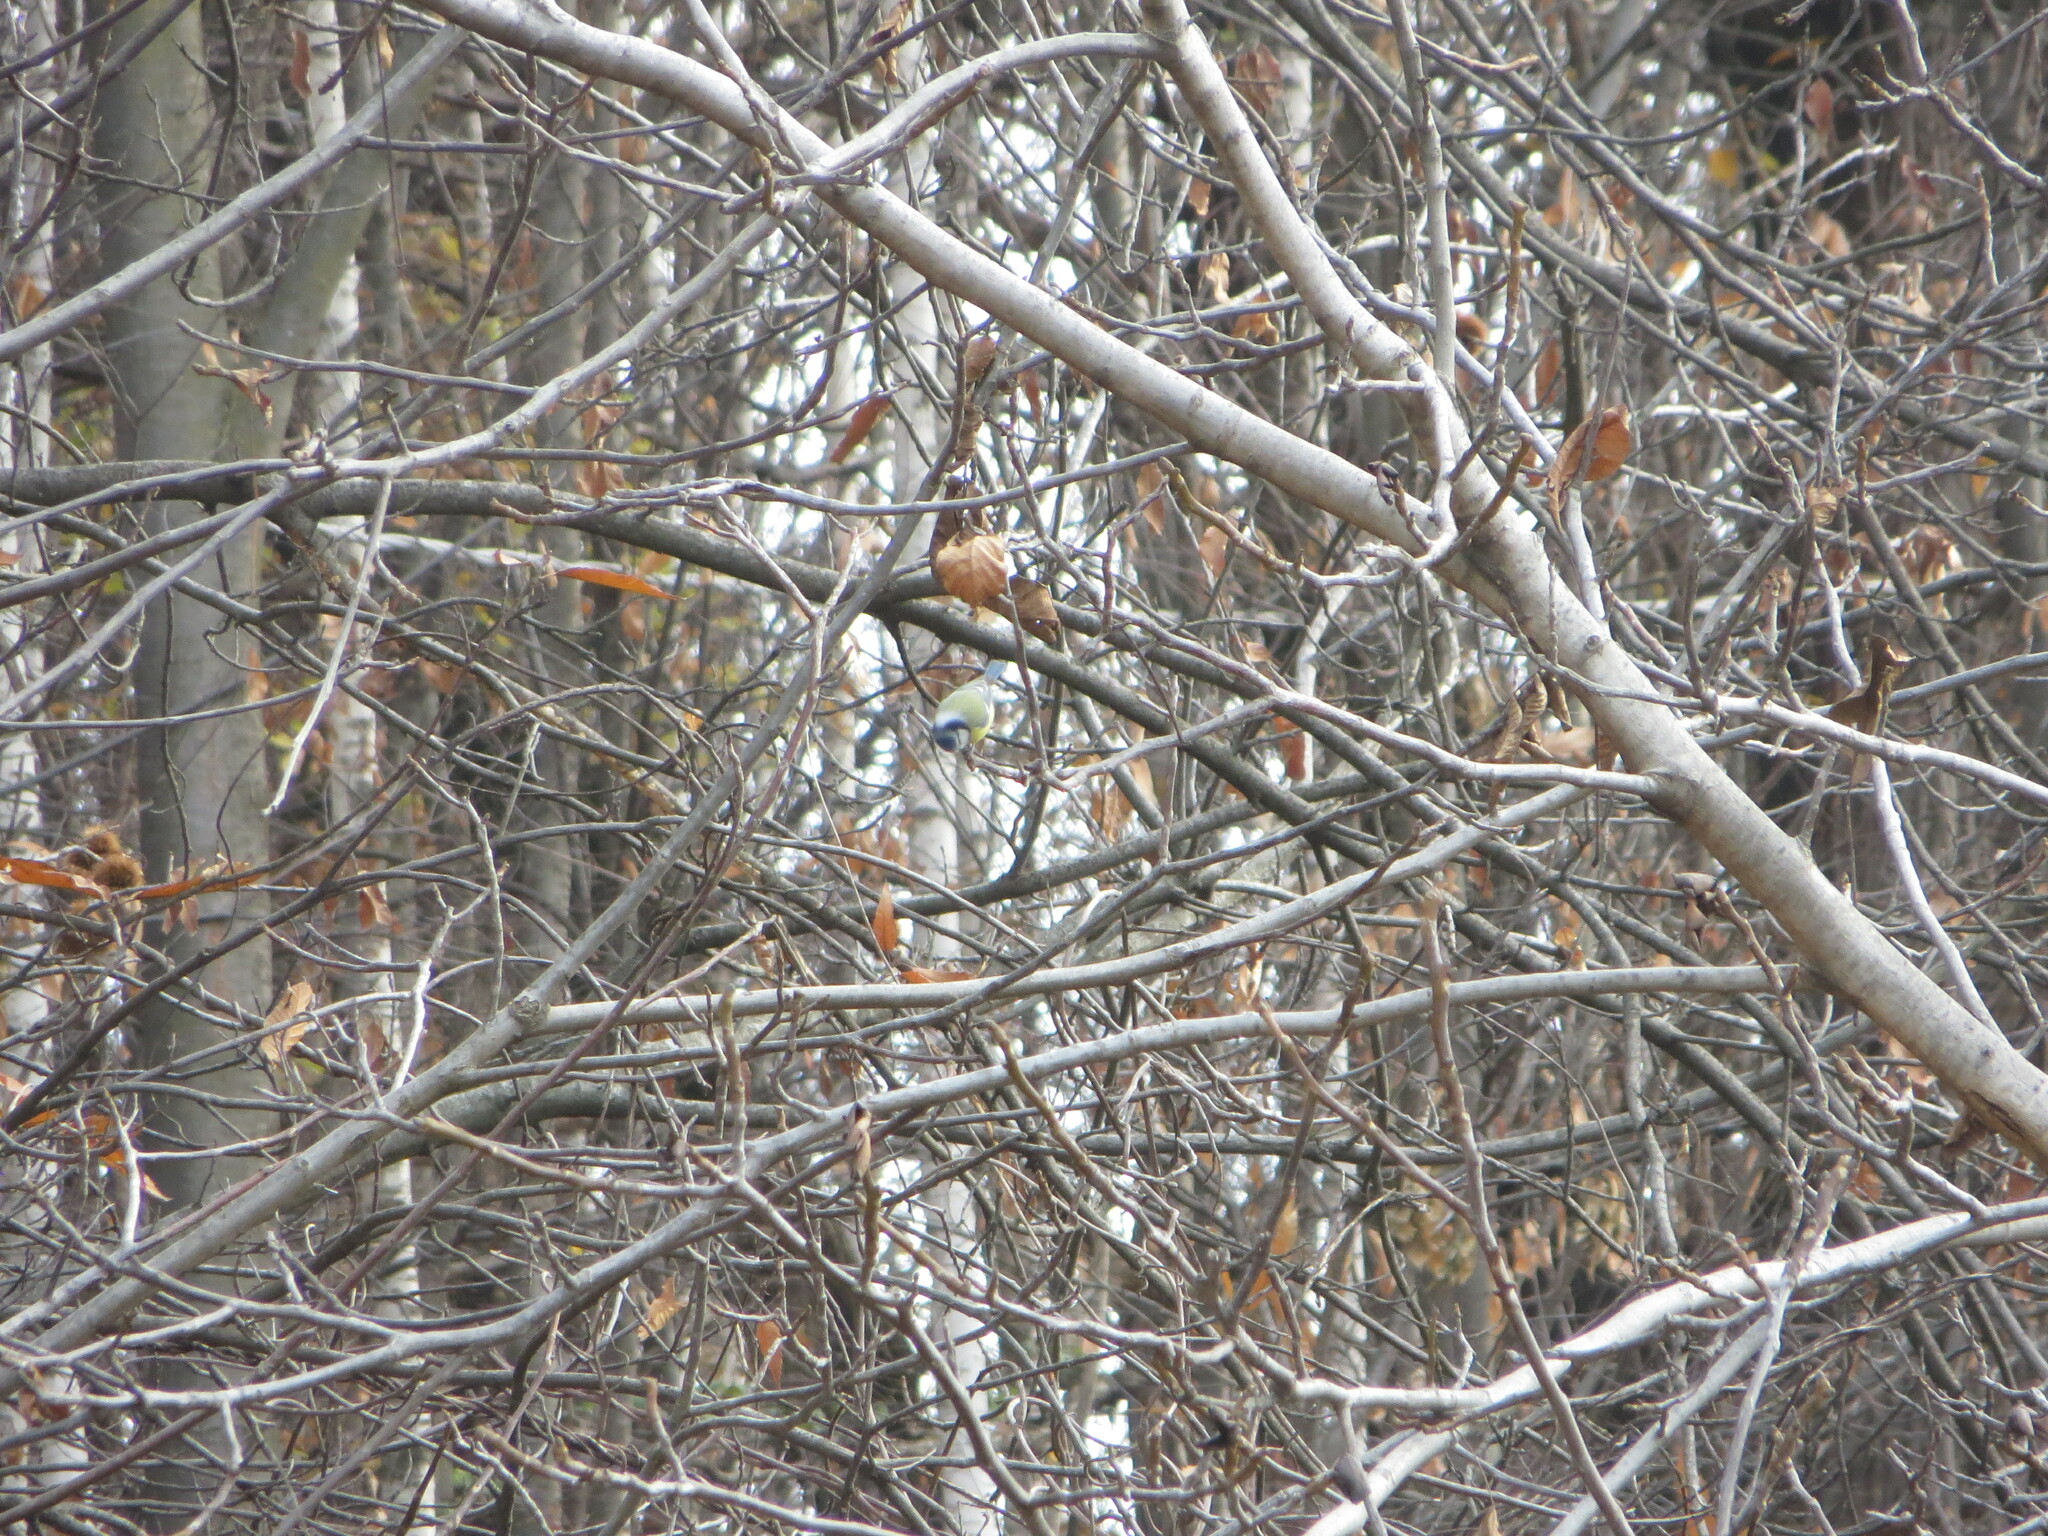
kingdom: Animalia
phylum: Chordata
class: Aves
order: Passeriformes
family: Paridae
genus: Cyanistes
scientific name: Cyanistes caeruleus
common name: Eurasian blue tit
